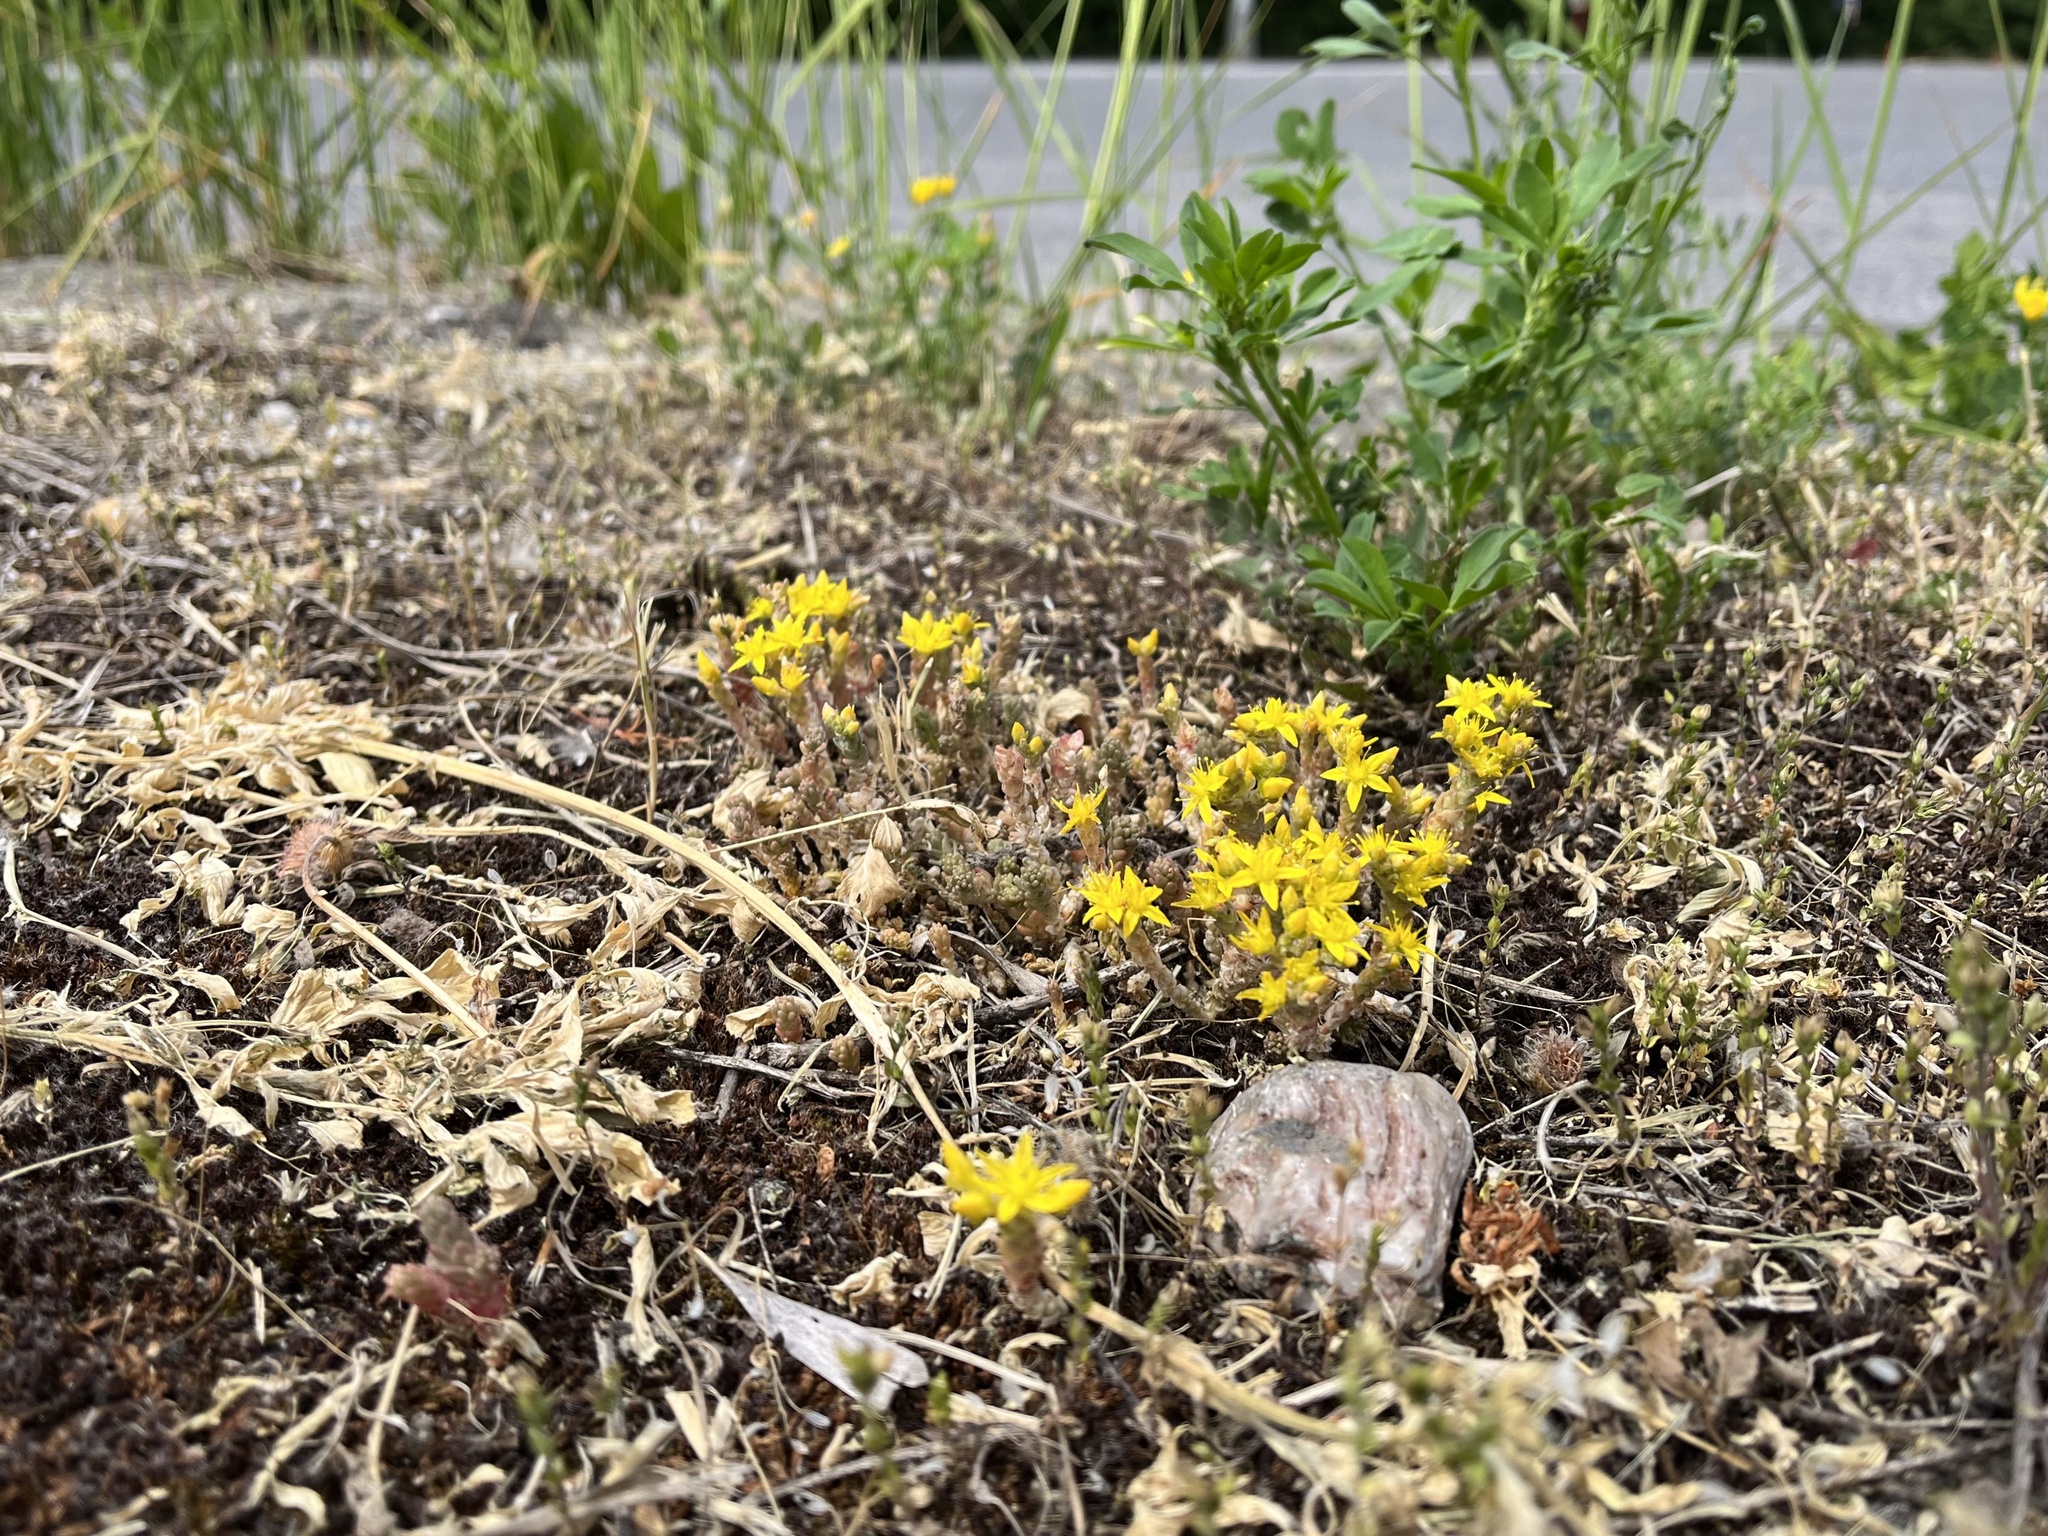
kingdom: Plantae
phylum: Tracheophyta
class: Magnoliopsida
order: Saxifragales
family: Crassulaceae
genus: Sedum
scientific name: Sedum acre
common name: Biting stonecrop
